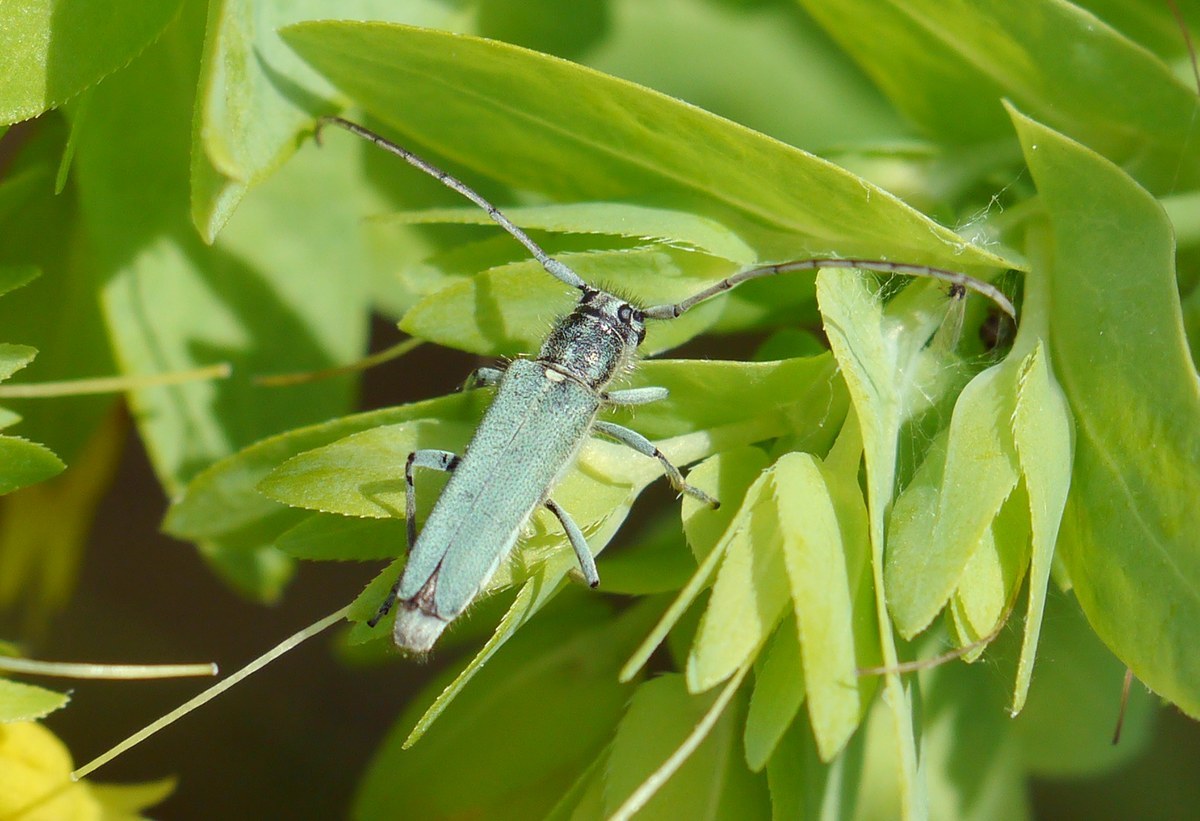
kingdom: Animalia
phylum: Arthropoda
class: Insecta
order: Coleoptera
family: Cerambycidae
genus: Phytoecia
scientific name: Phytoecia coerulescens
